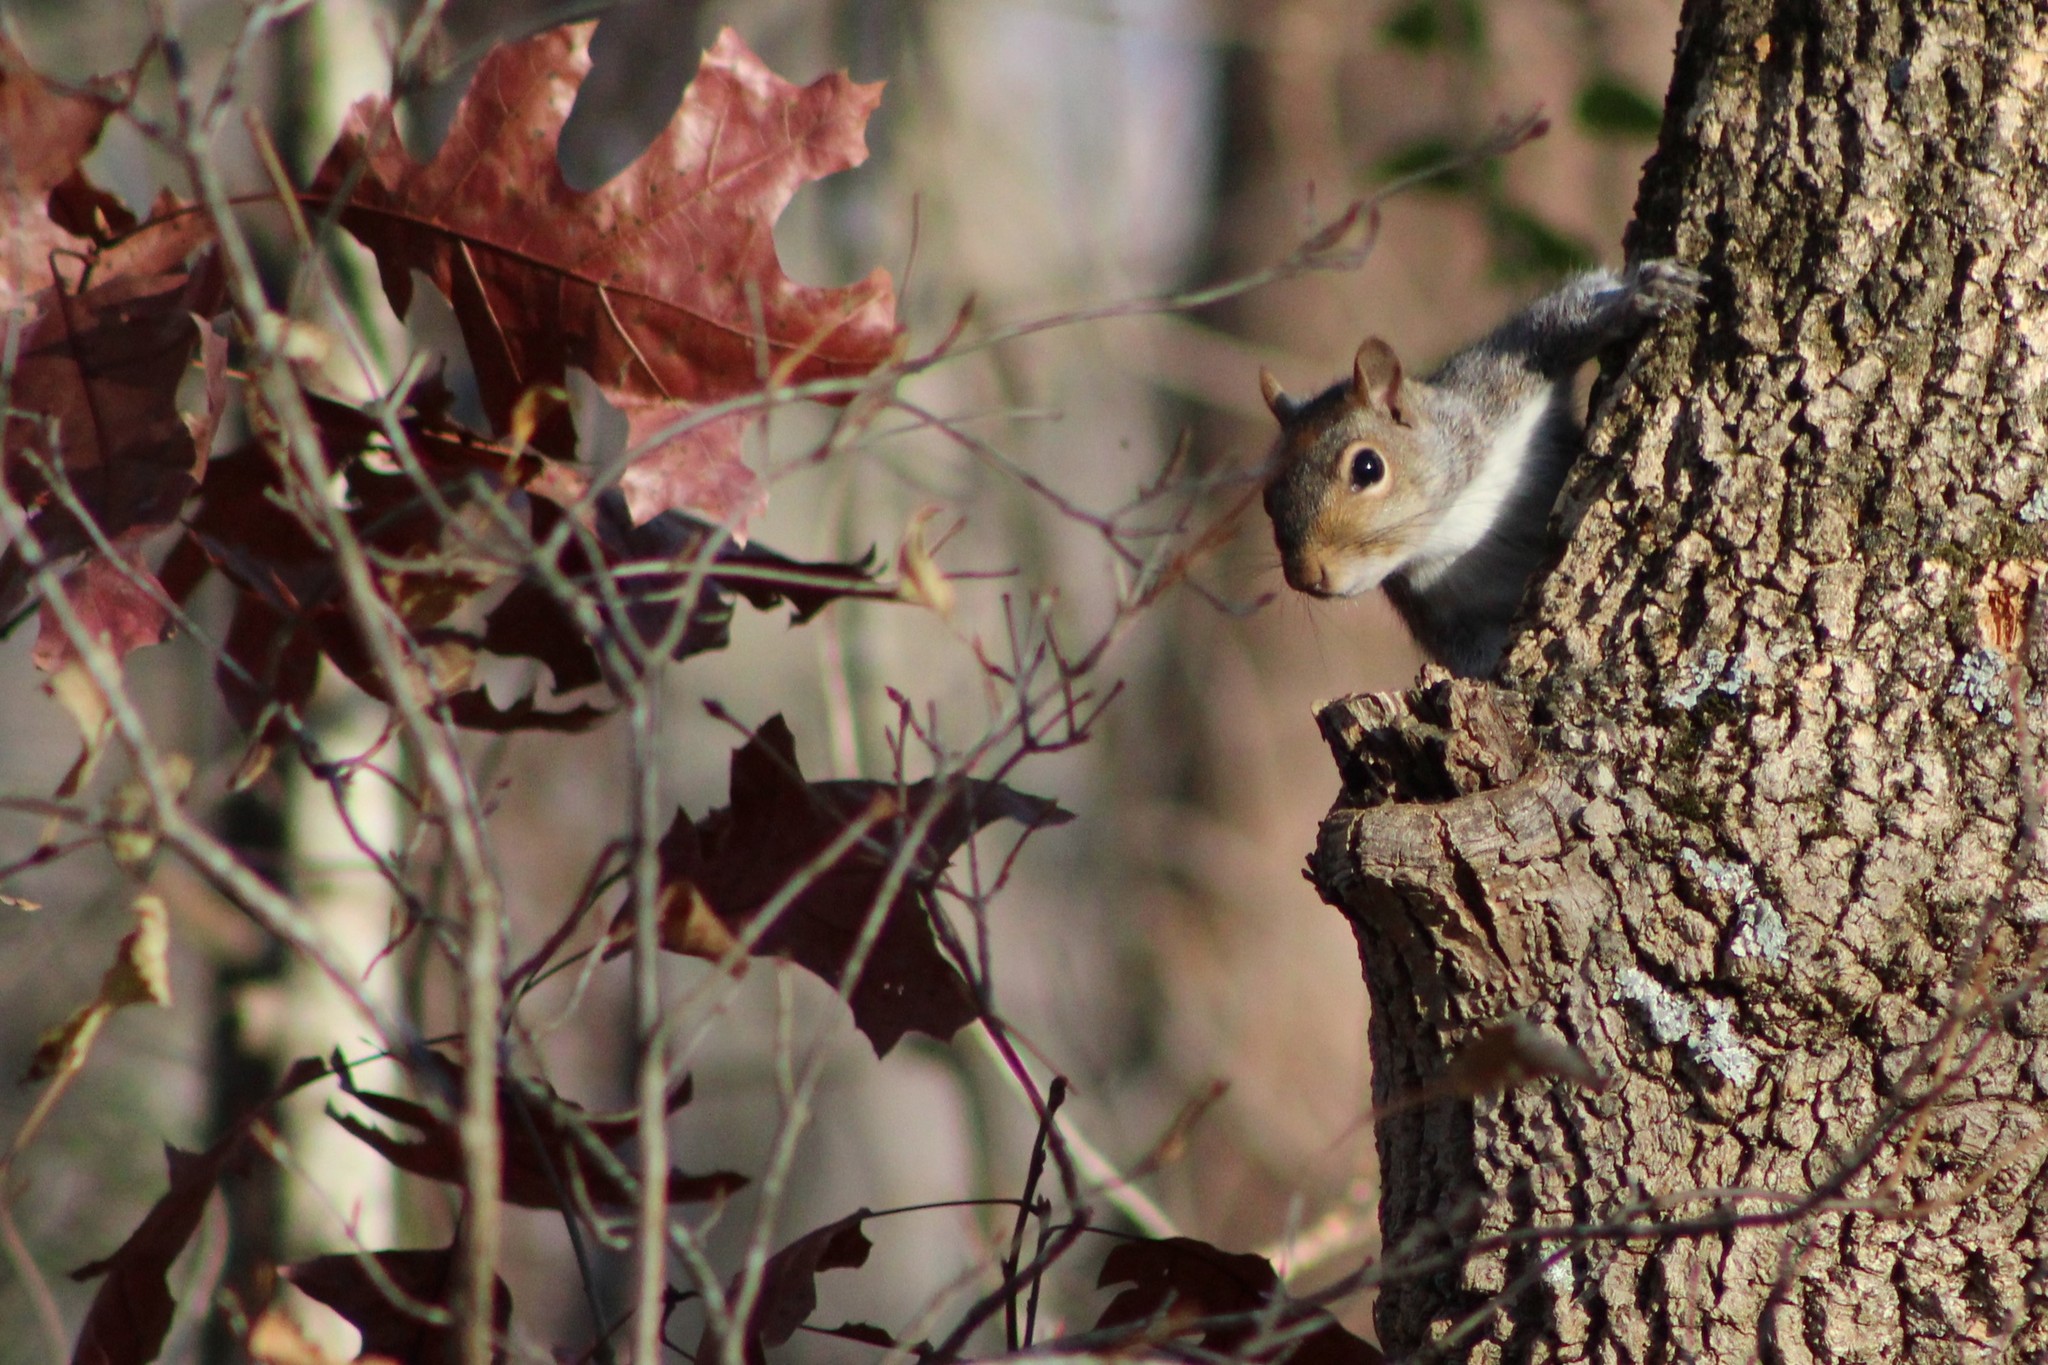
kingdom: Animalia
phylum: Chordata
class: Mammalia
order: Rodentia
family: Sciuridae
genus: Sciurus
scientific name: Sciurus carolinensis
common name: Eastern gray squirrel
